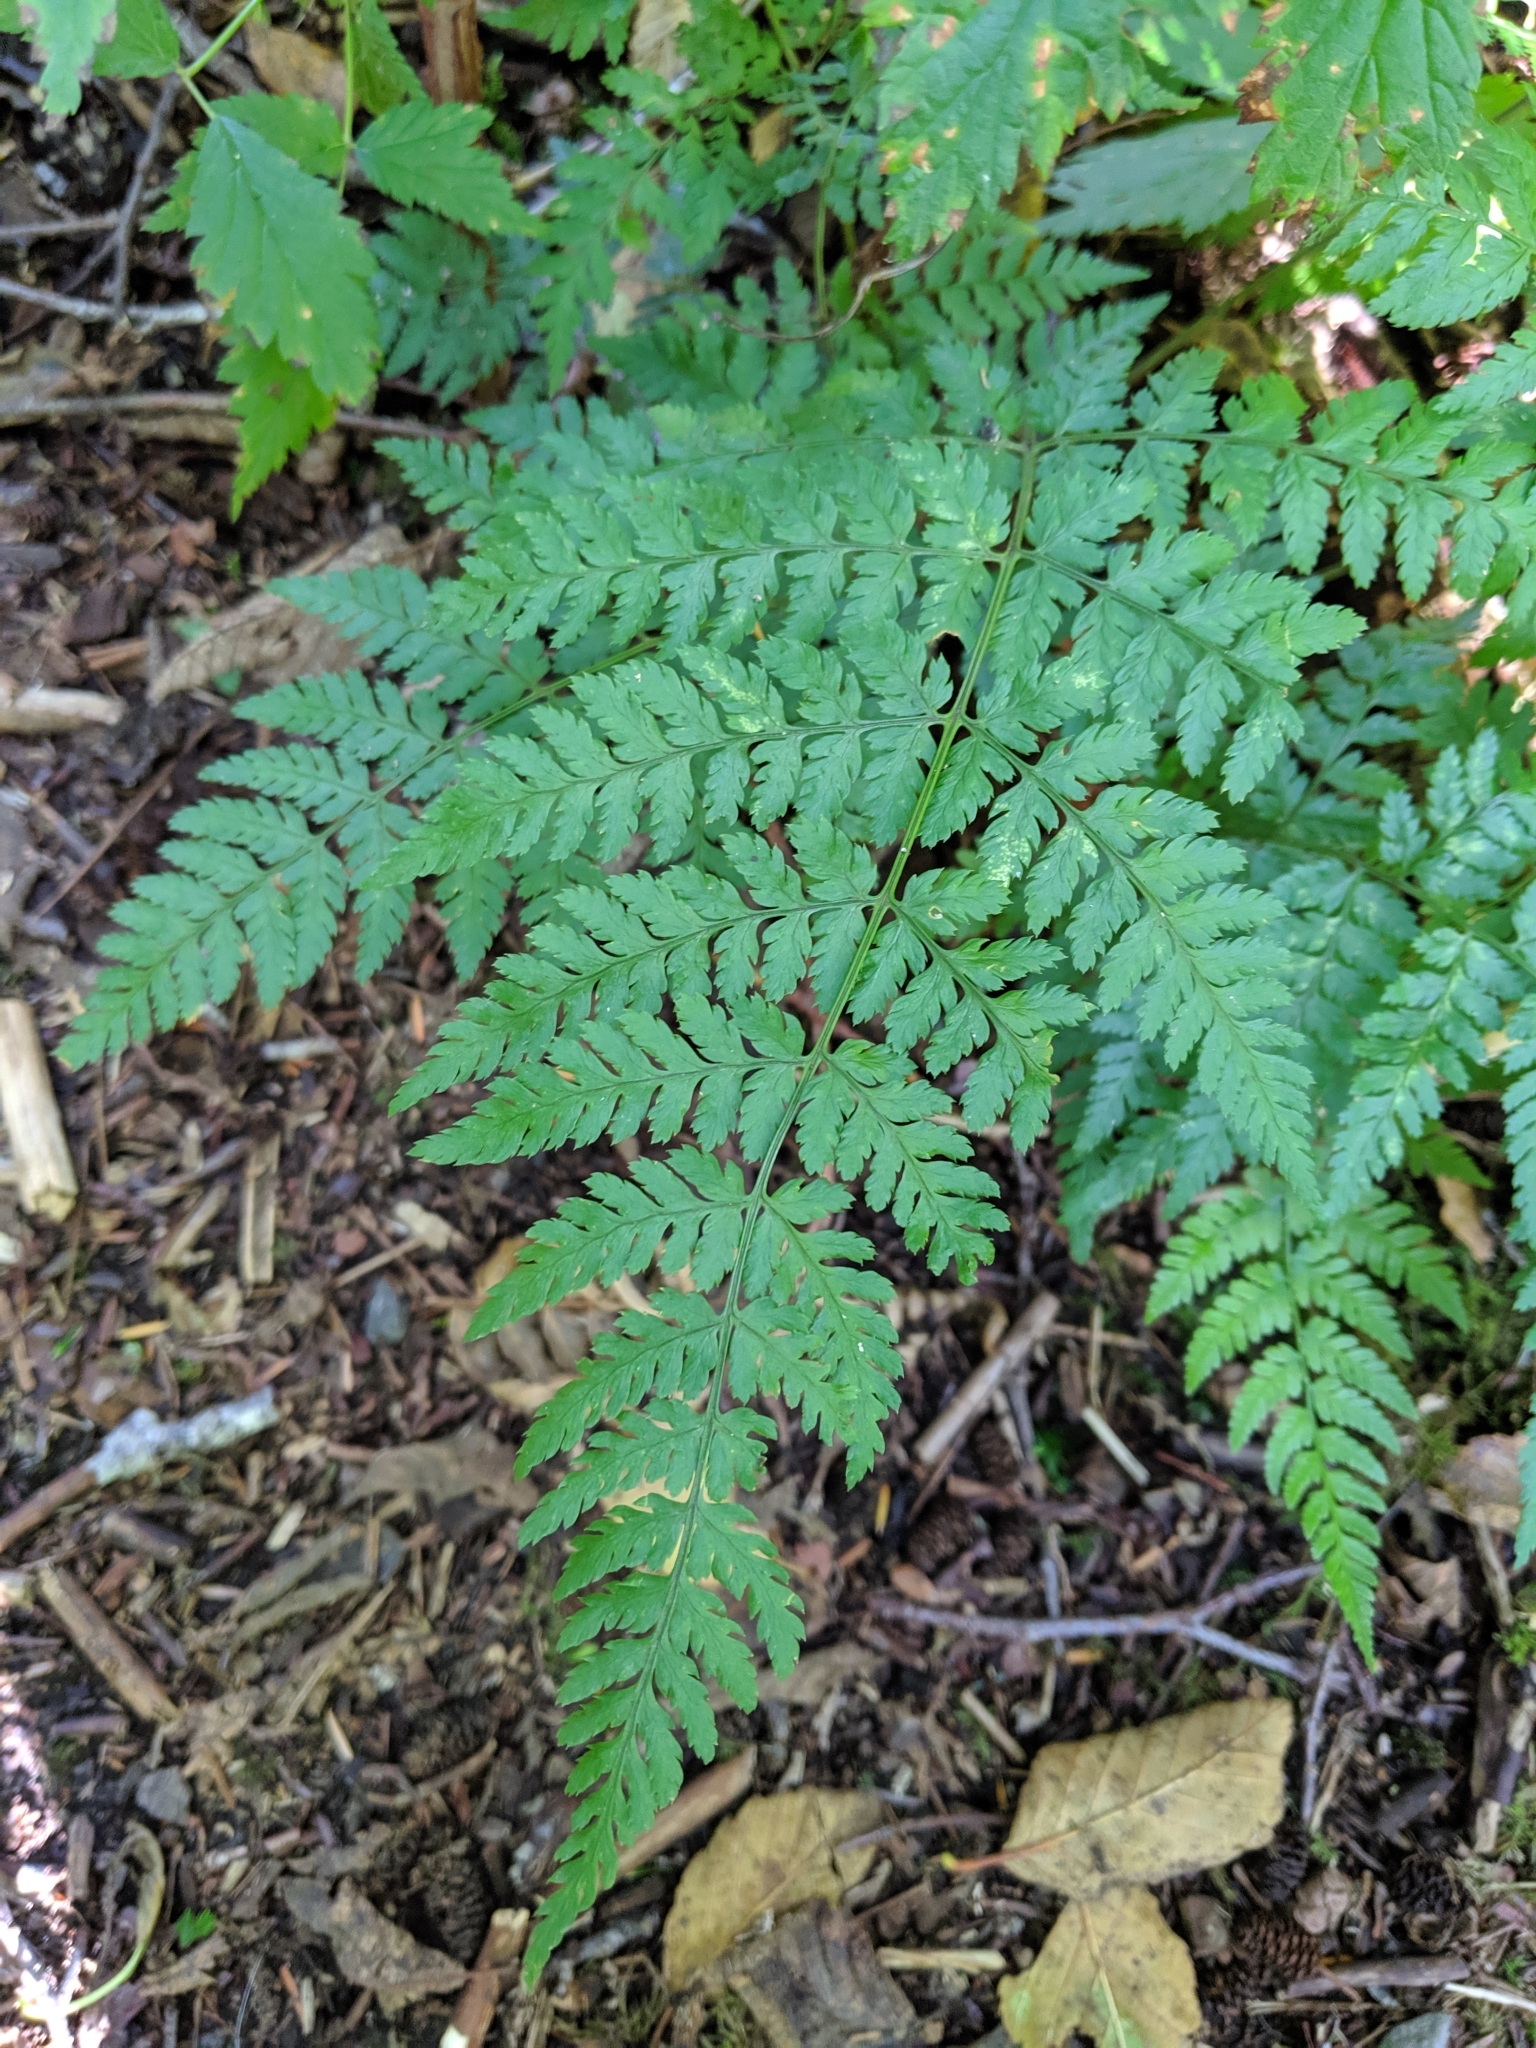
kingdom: Plantae
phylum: Tracheophyta
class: Polypodiopsida
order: Polypodiales
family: Dryopteridaceae
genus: Dryopteris
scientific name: Dryopteris expansa
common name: Northern buckler fern
